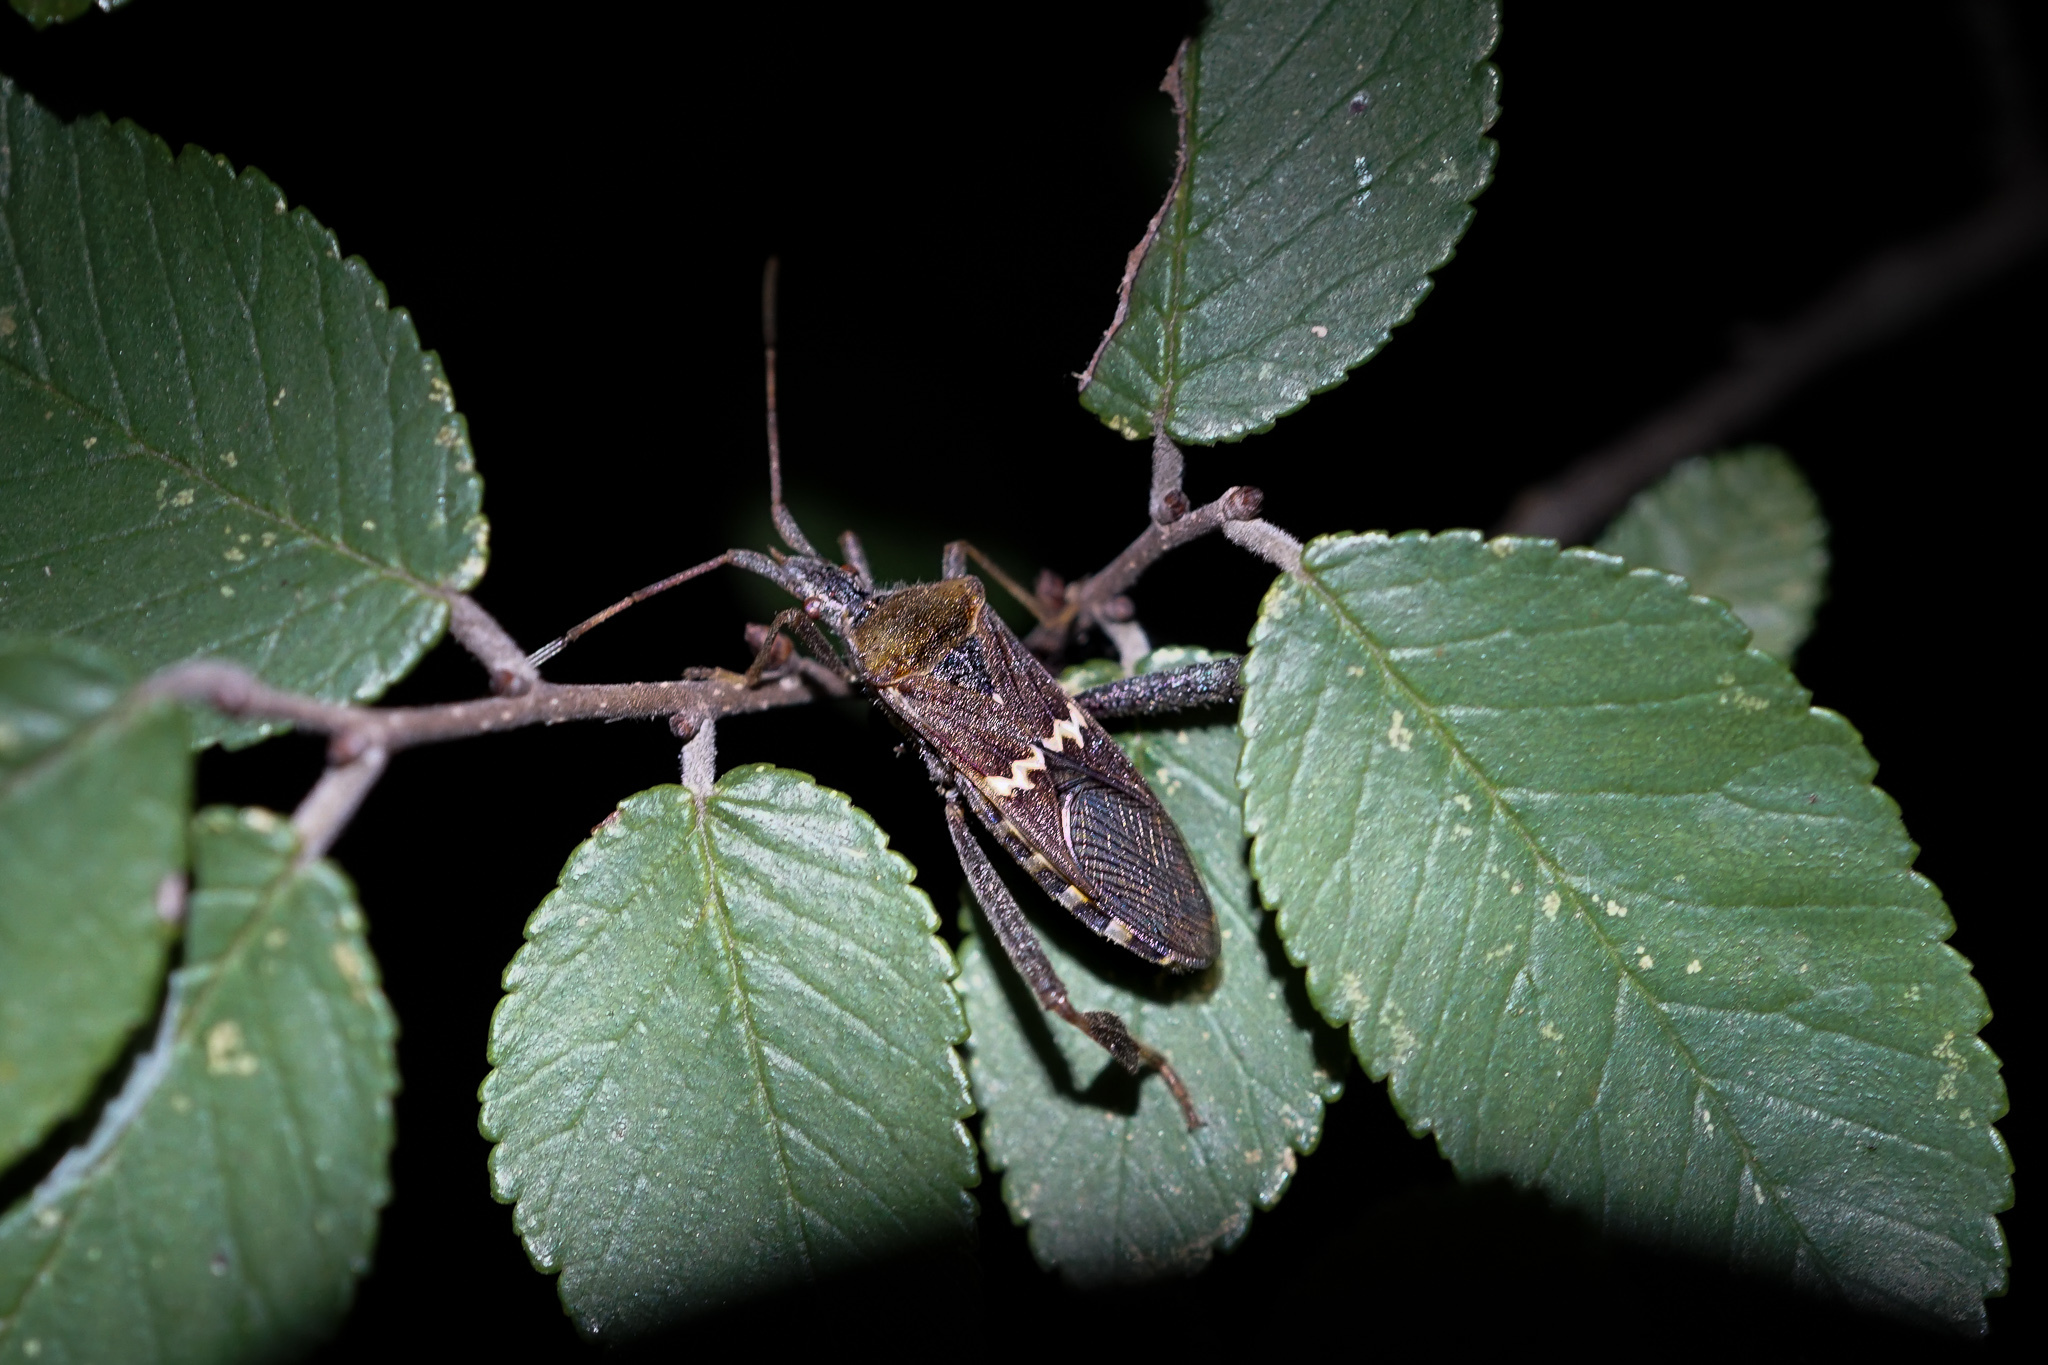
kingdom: Animalia
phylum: Arthropoda
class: Insecta
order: Hemiptera
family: Coreidae
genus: Leptoglossus
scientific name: Leptoglossus clypealis
